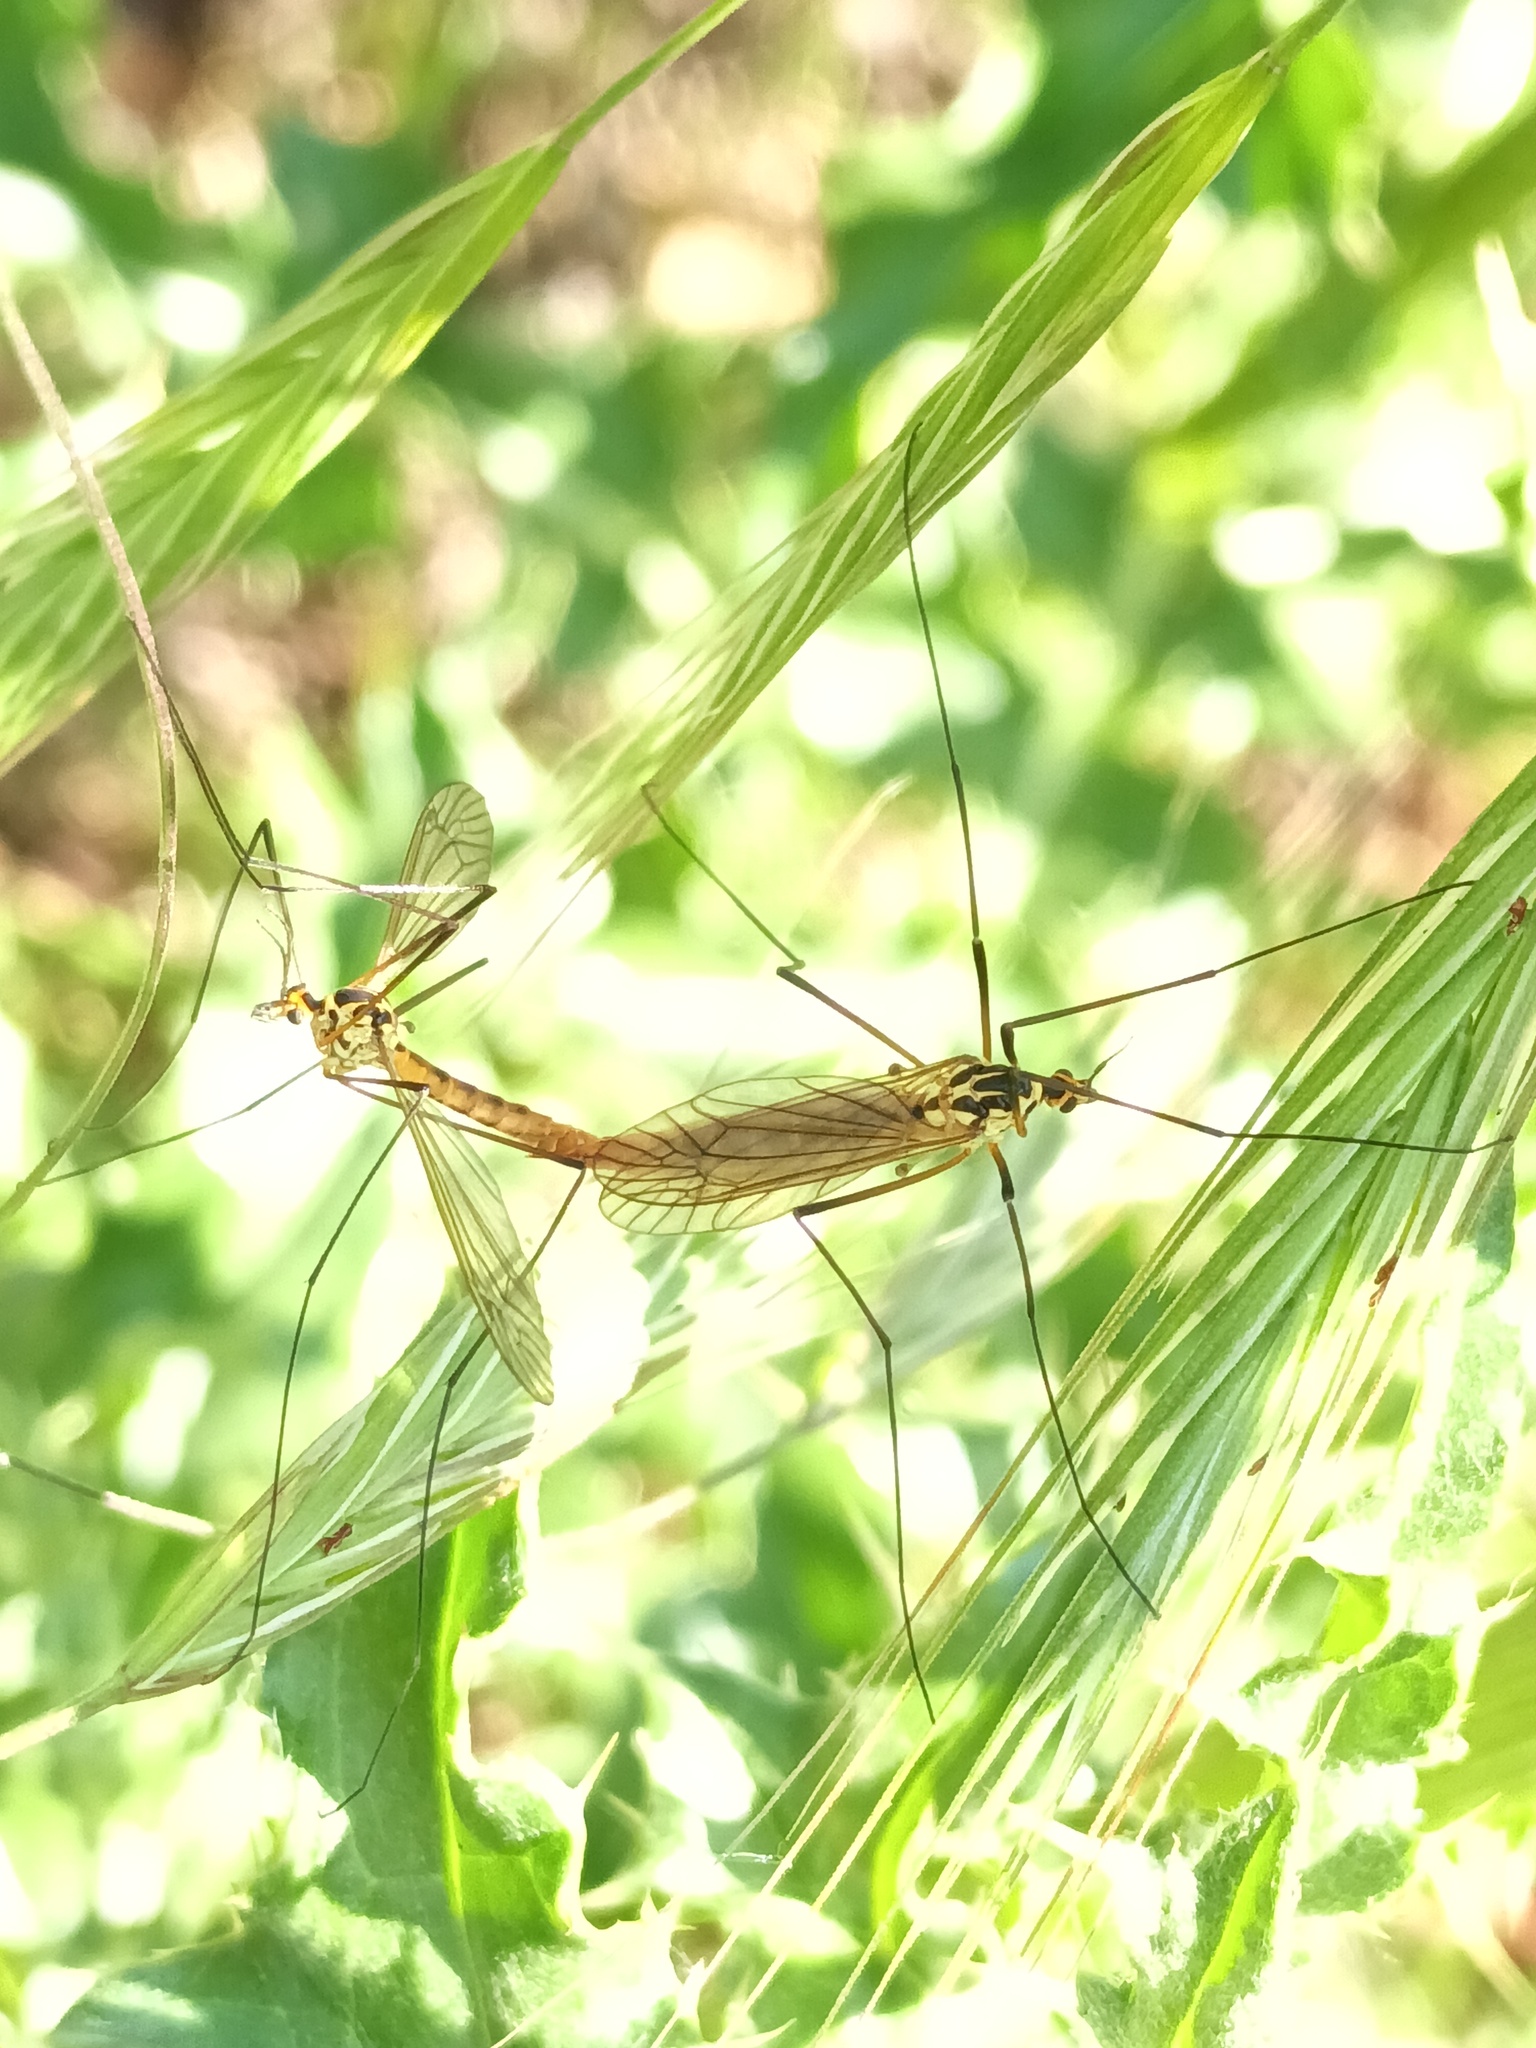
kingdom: Animalia
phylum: Arthropoda
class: Insecta
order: Diptera
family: Tipulidae
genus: Nephrotoma
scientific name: Nephrotoma flavescens
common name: Tiger cranefly
